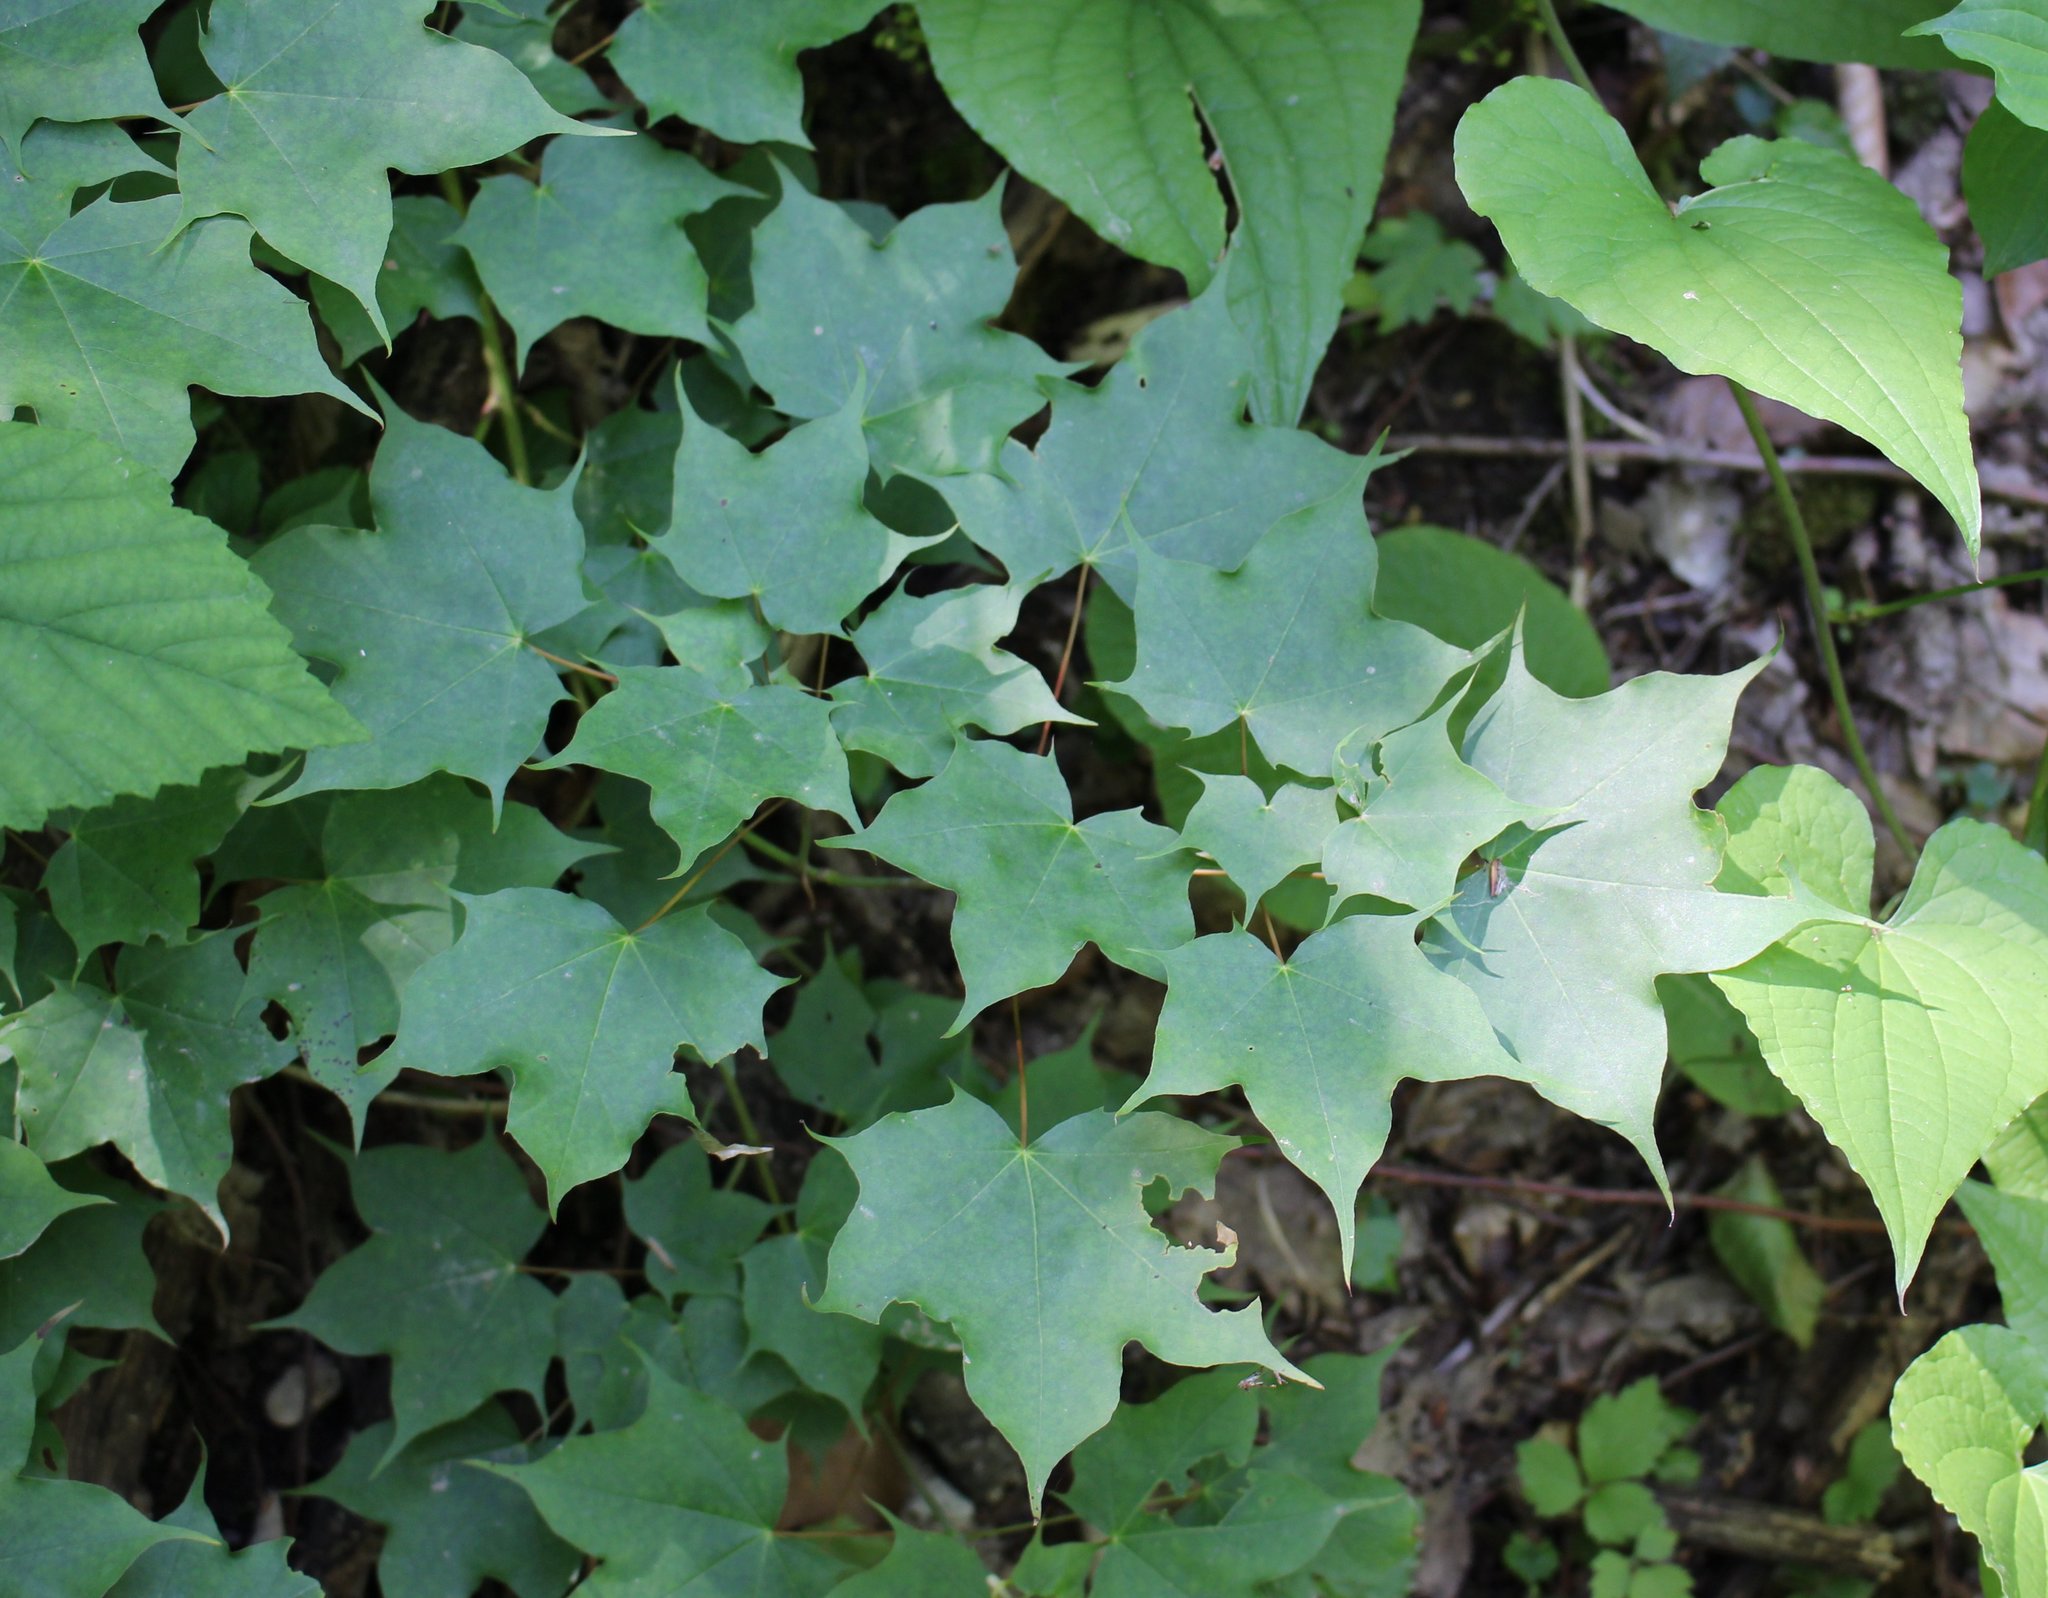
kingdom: Plantae
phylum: Tracheophyta
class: Magnoliopsida
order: Sapindales
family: Sapindaceae
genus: Acer
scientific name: Acer cappadocicum
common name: Cappadocian maple
